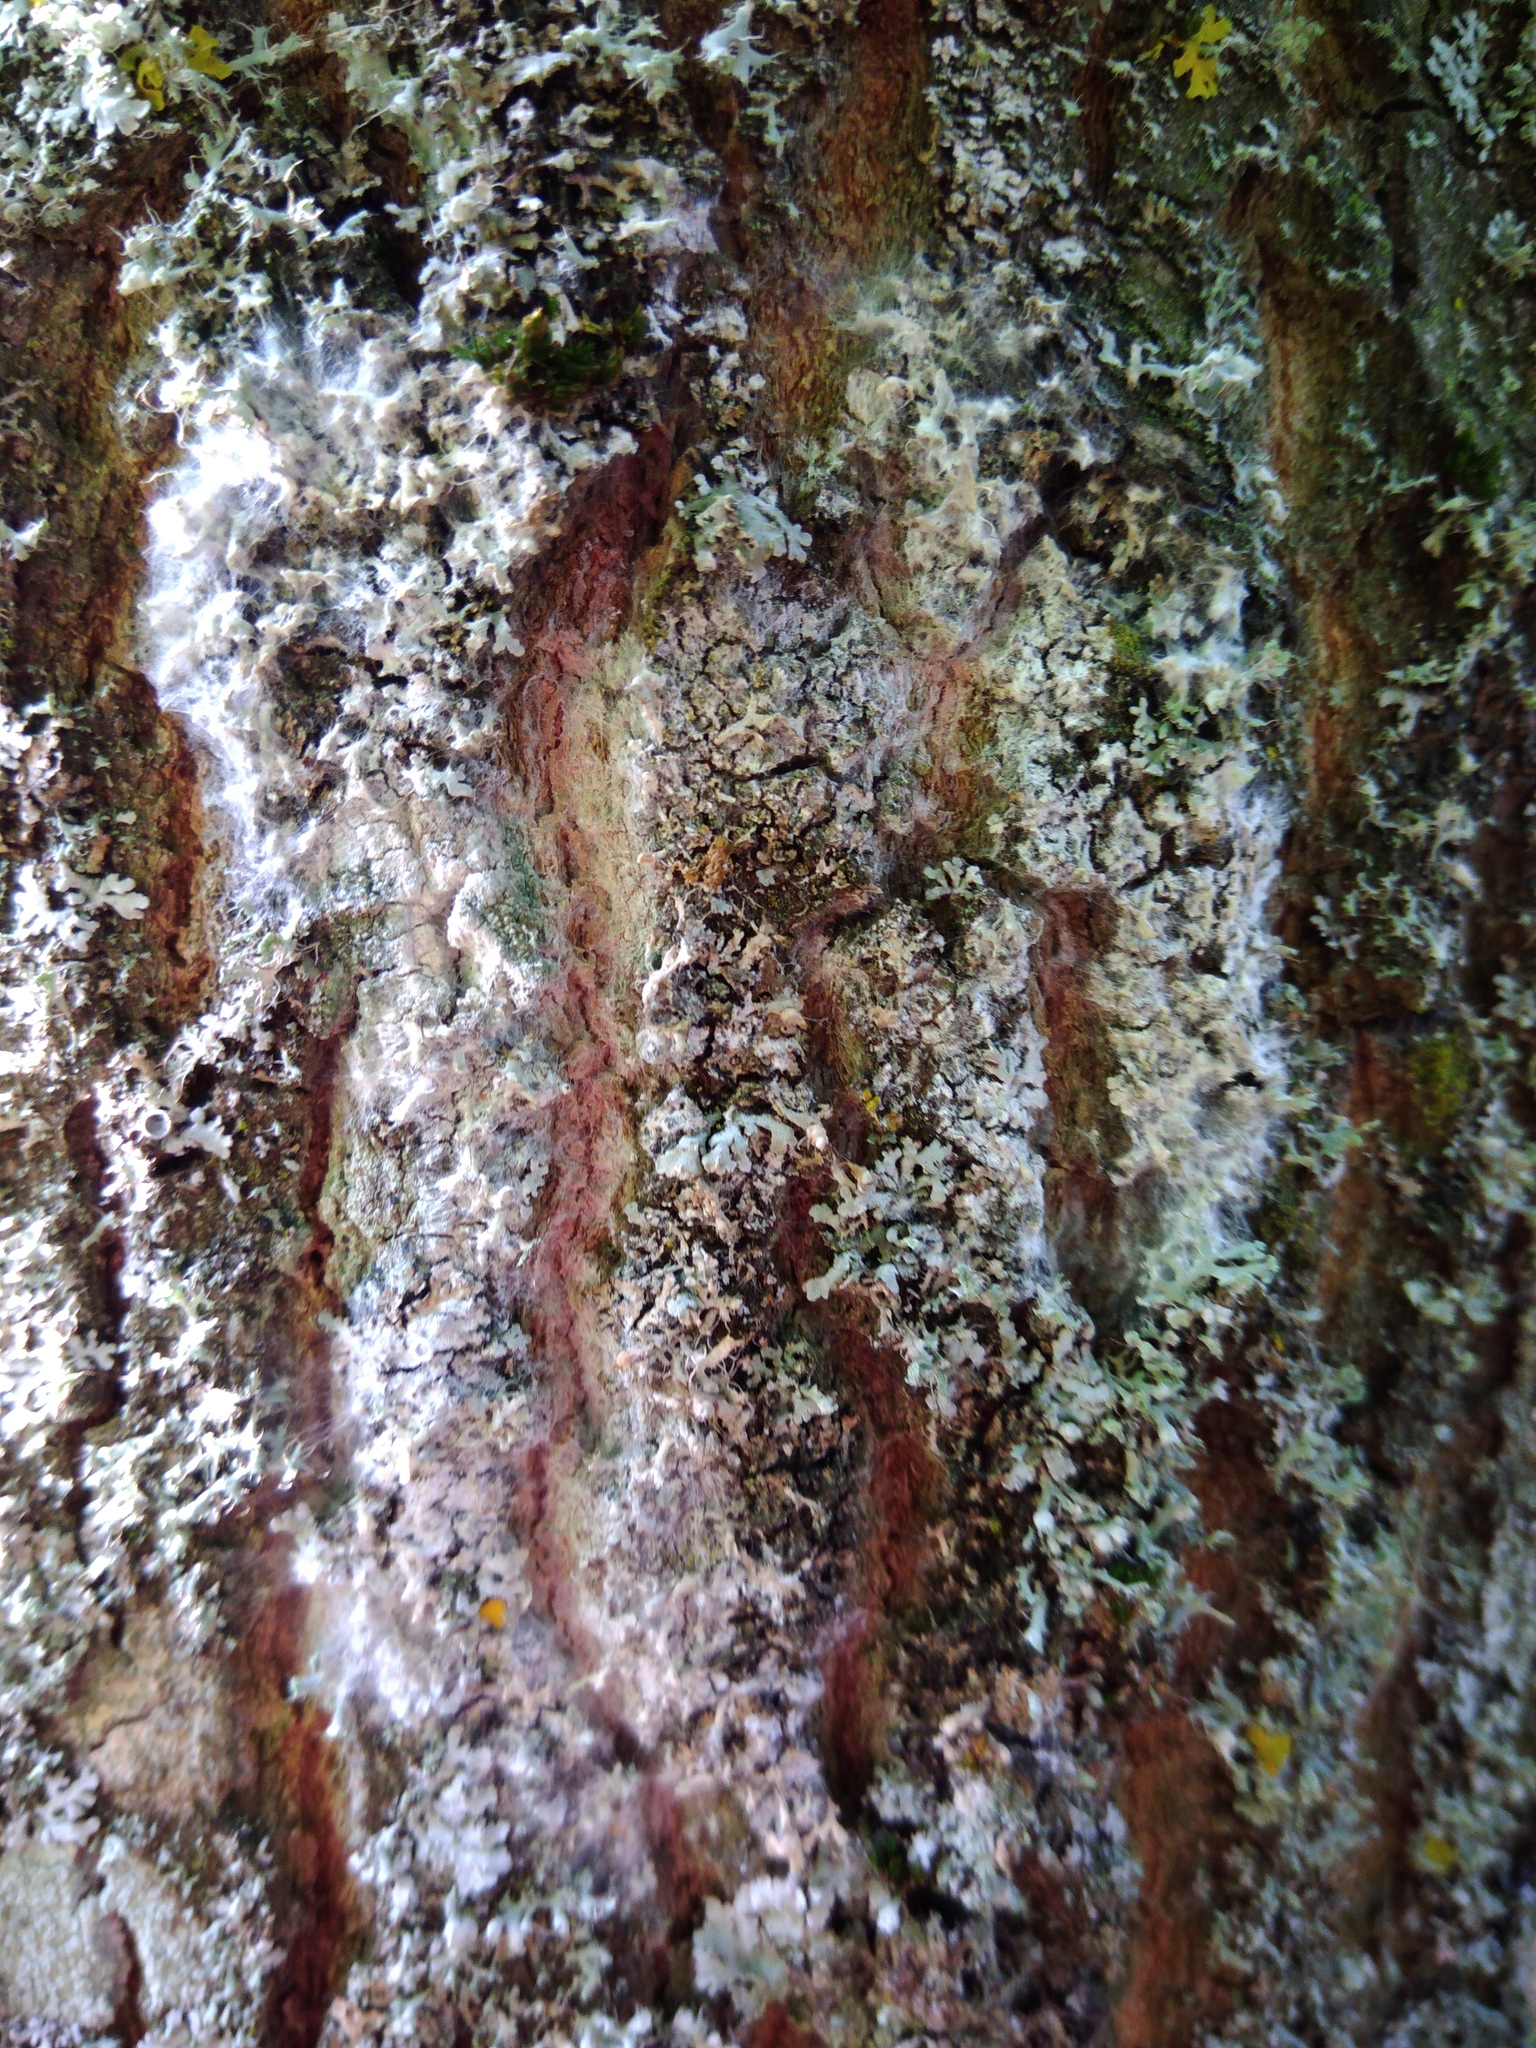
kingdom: Fungi
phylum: Basidiomycota
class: Agaricomycetes
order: Atheliales
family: Atheliaceae
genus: Athelia
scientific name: Athelia arachnoidea
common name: Candelabra duster
